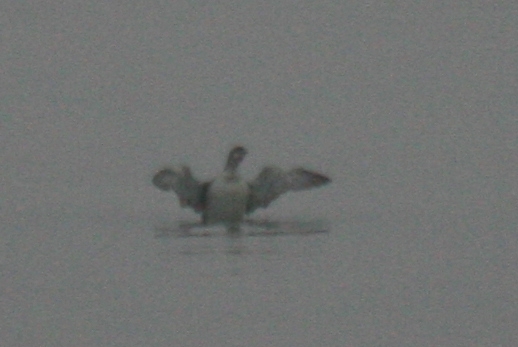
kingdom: Animalia
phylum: Chordata
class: Aves
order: Gaviiformes
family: Gaviidae
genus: Gavia
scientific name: Gavia immer
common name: Common loon
